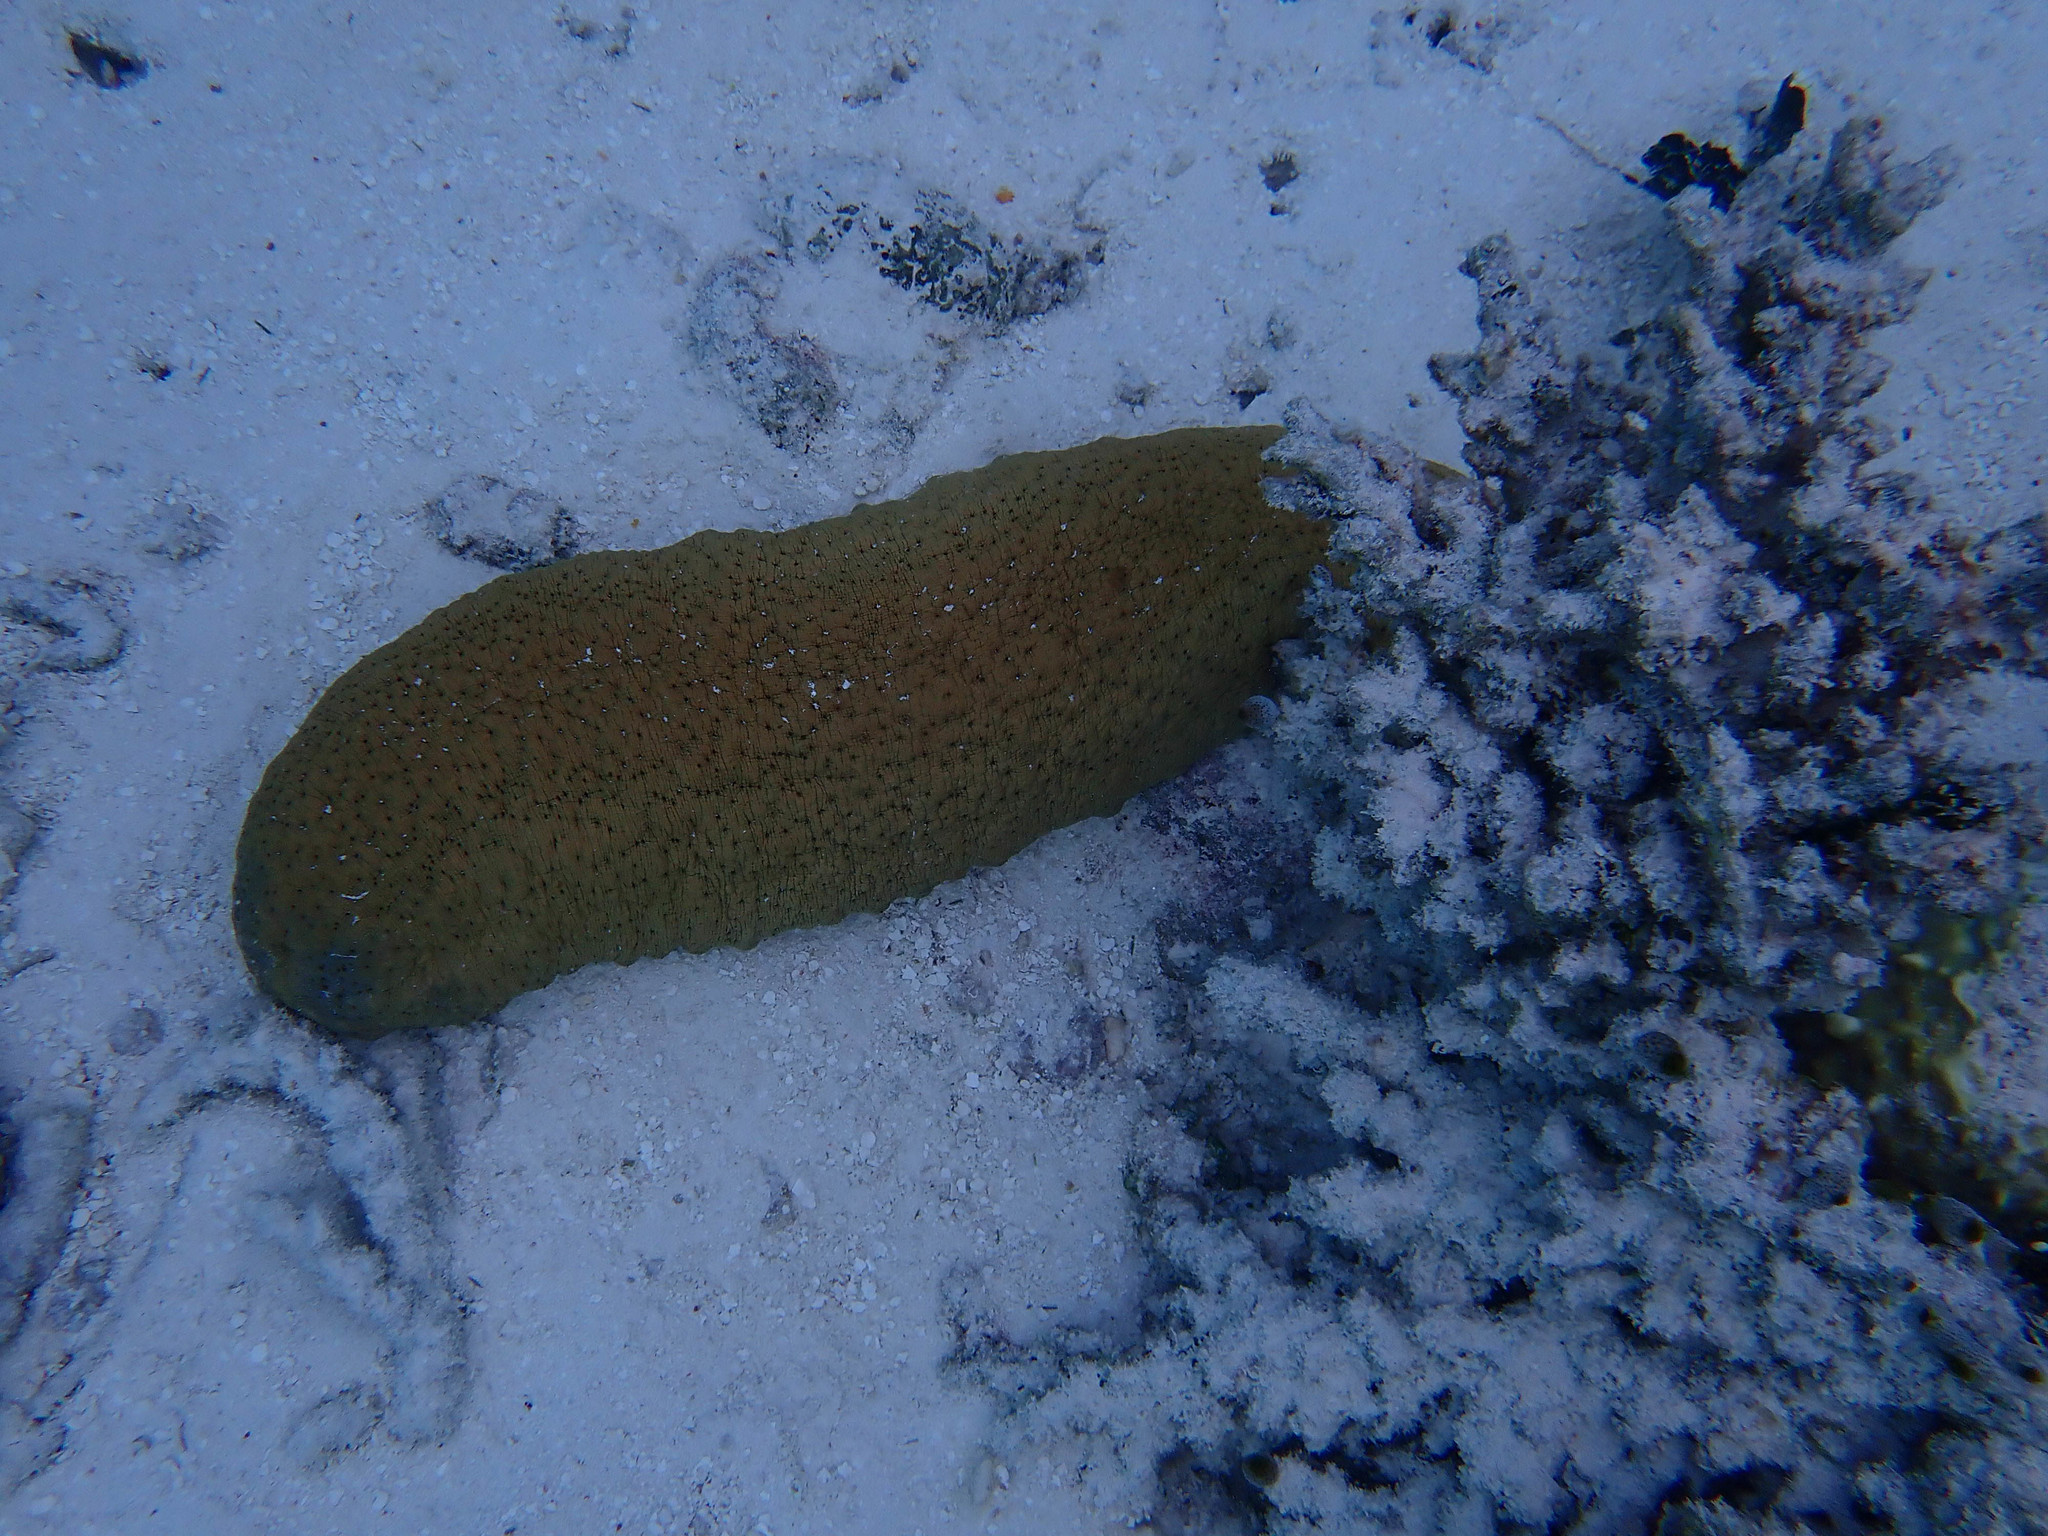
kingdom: Animalia
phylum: Echinodermata
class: Holothuroidea
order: Synallactida
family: Stichopodidae
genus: Stichopus
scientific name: Stichopus herrmanni
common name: Curryfish
